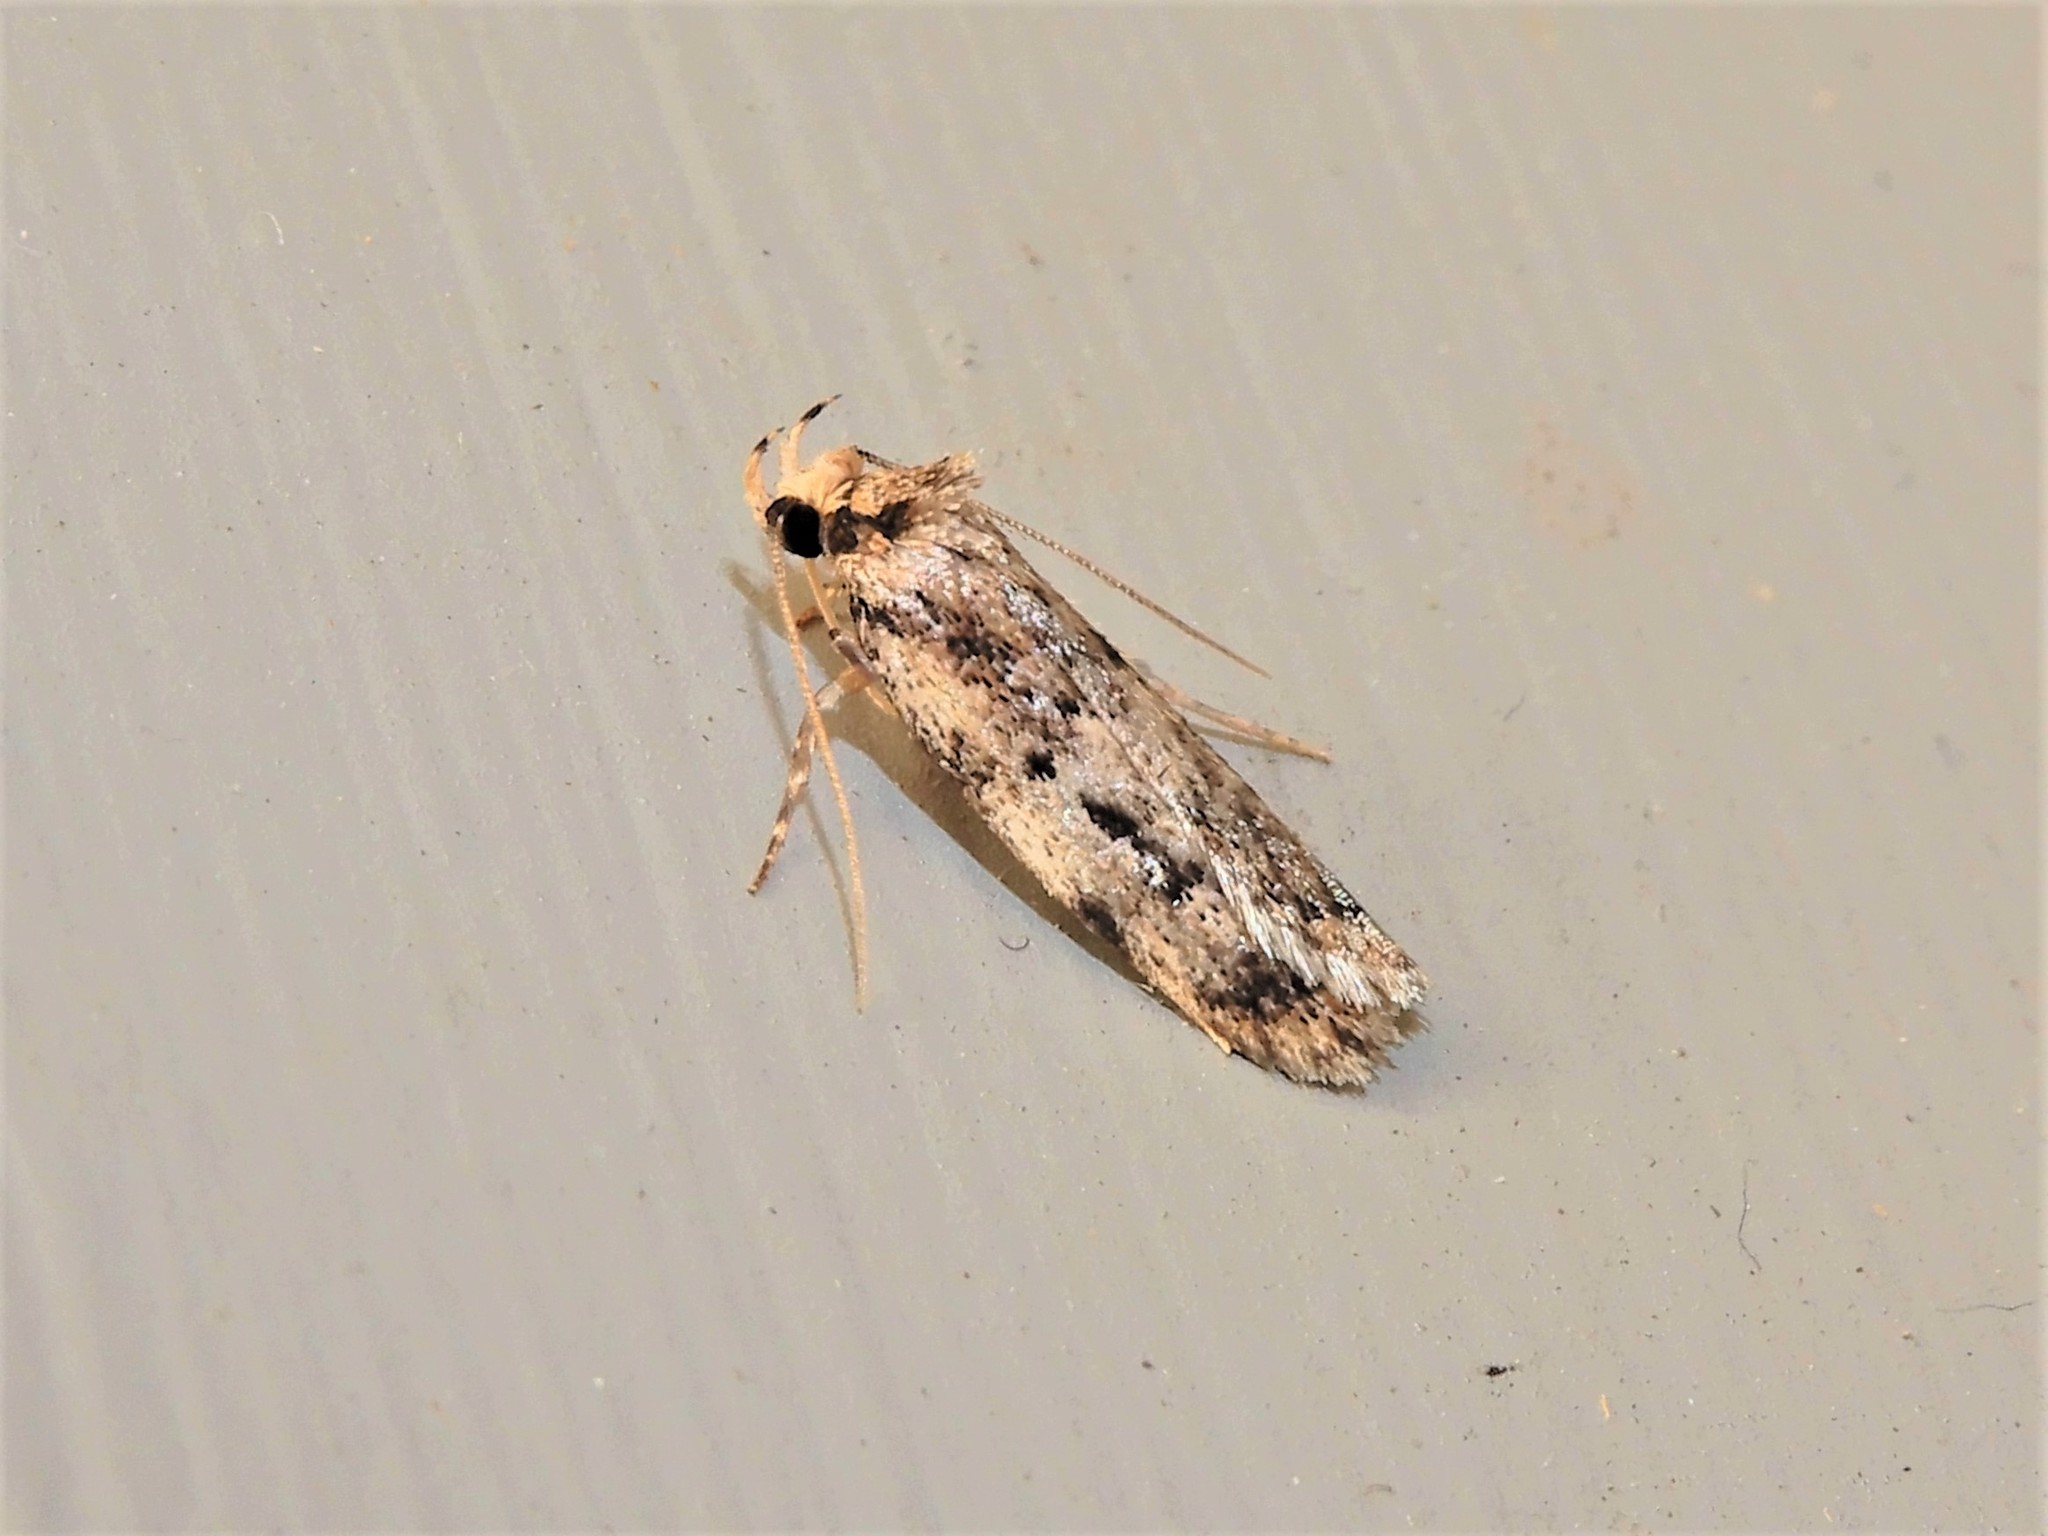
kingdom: Animalia
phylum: Arthropoda
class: Insecta
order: Lepidoptera
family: Oecophoridae
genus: Barea
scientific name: Barea exarcha
